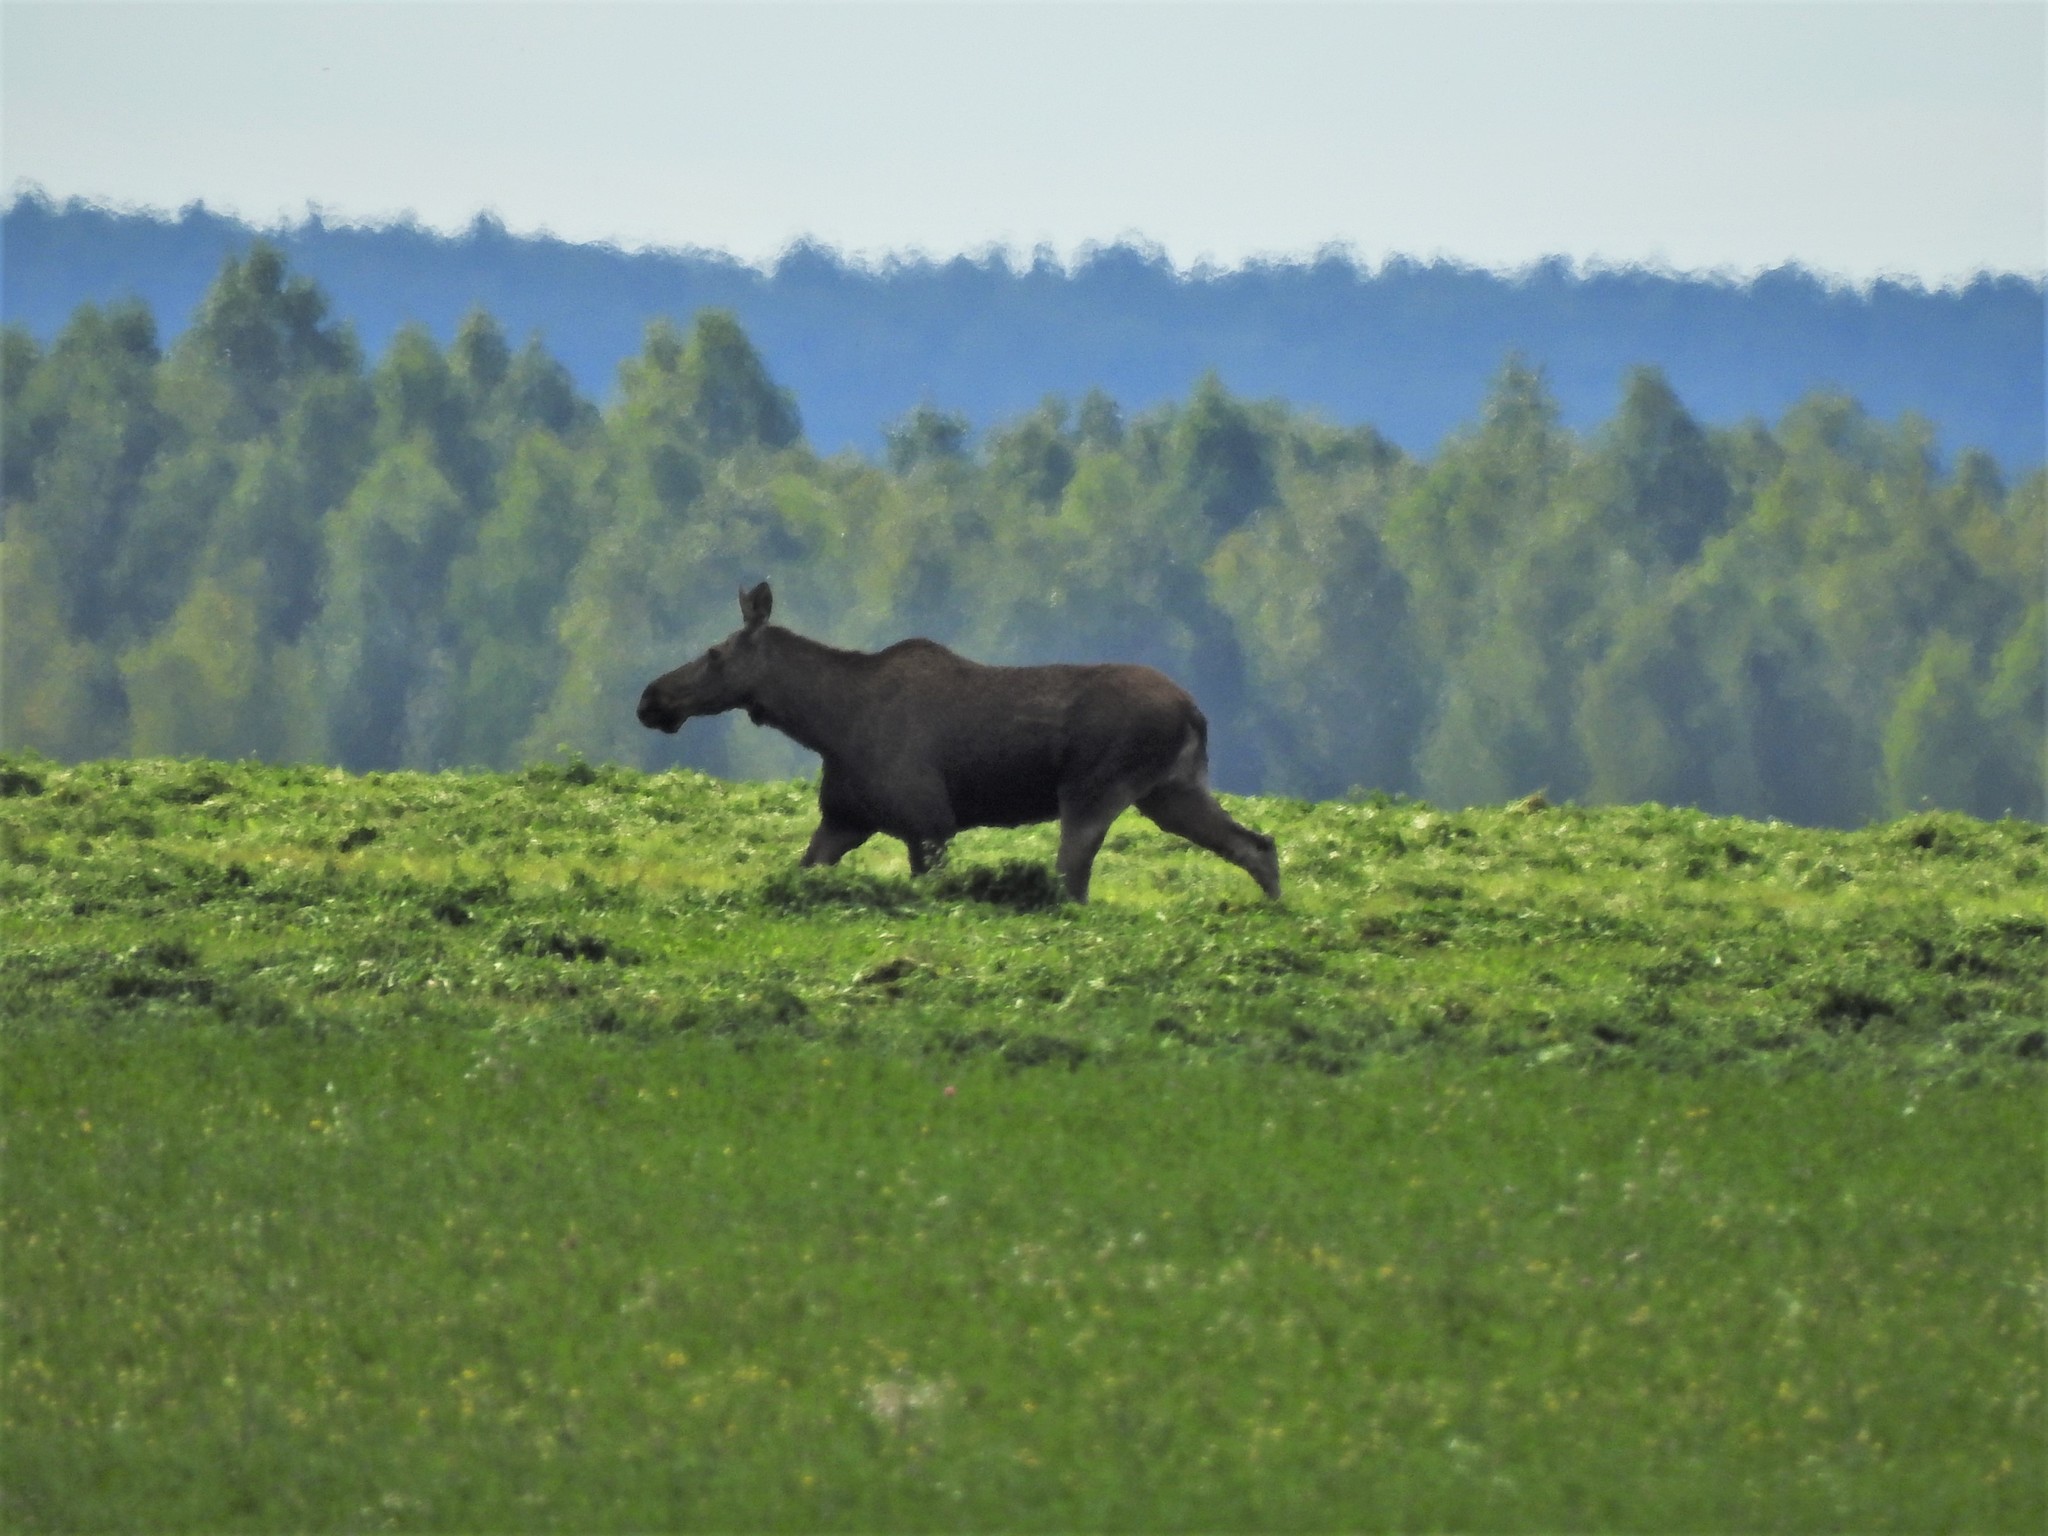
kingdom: Animalia
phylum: Chordata
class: Mammalia
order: Artiodactyla
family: Cervidae
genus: Alces
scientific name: Alces alces
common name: Moose
